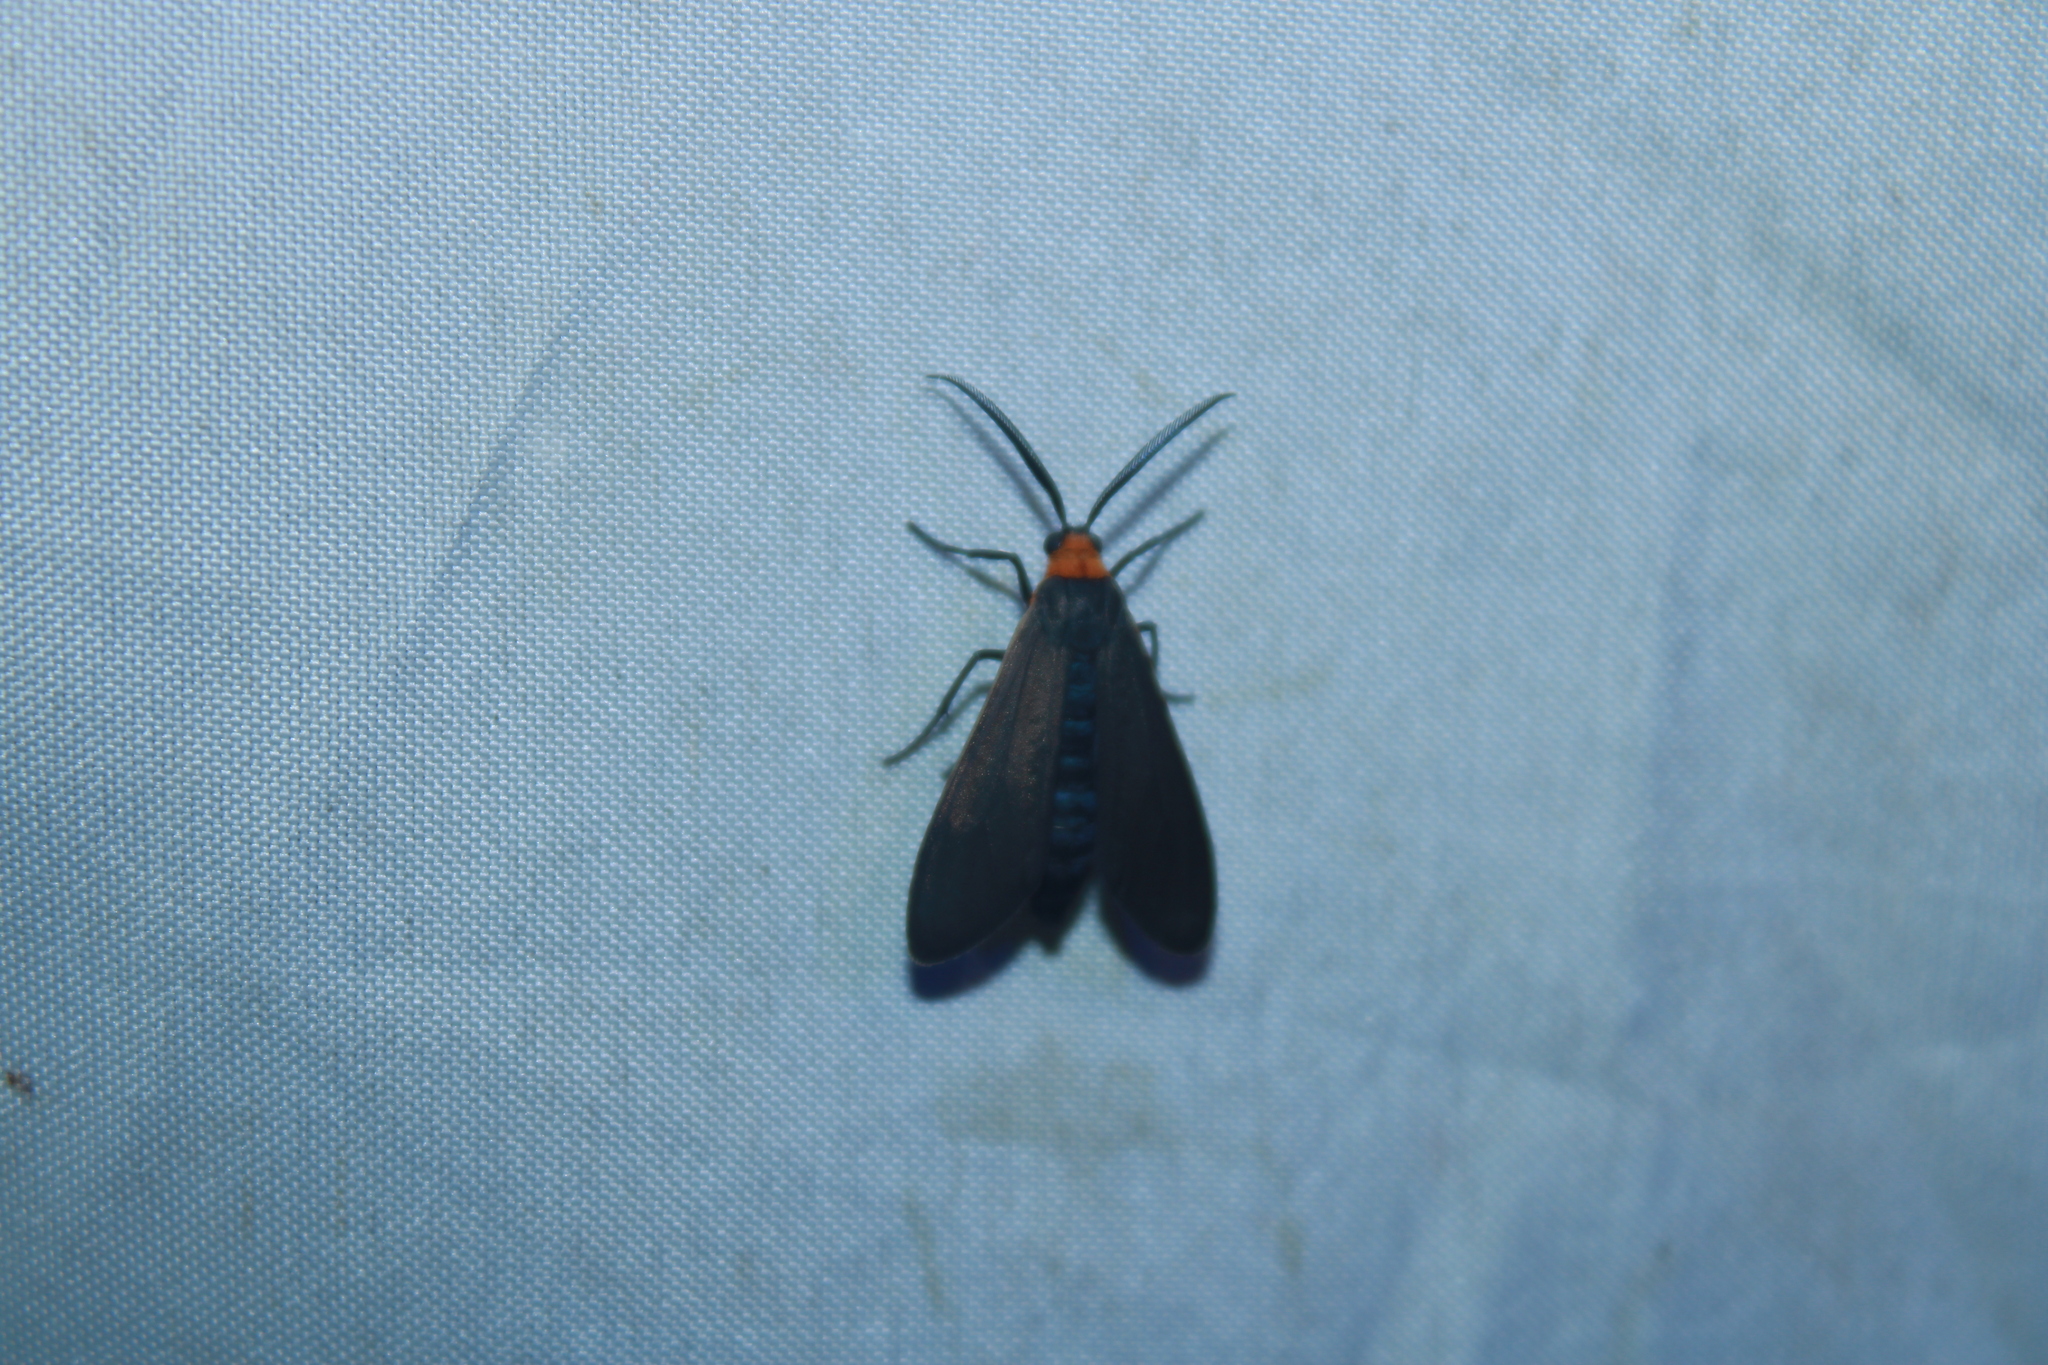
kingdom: Animalia
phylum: Arthropoda
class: Insecta
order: Lepidoptera
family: Erebidae
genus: Cisseps
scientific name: Cisseps fulvicollis
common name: Yellow-collared scape moth
